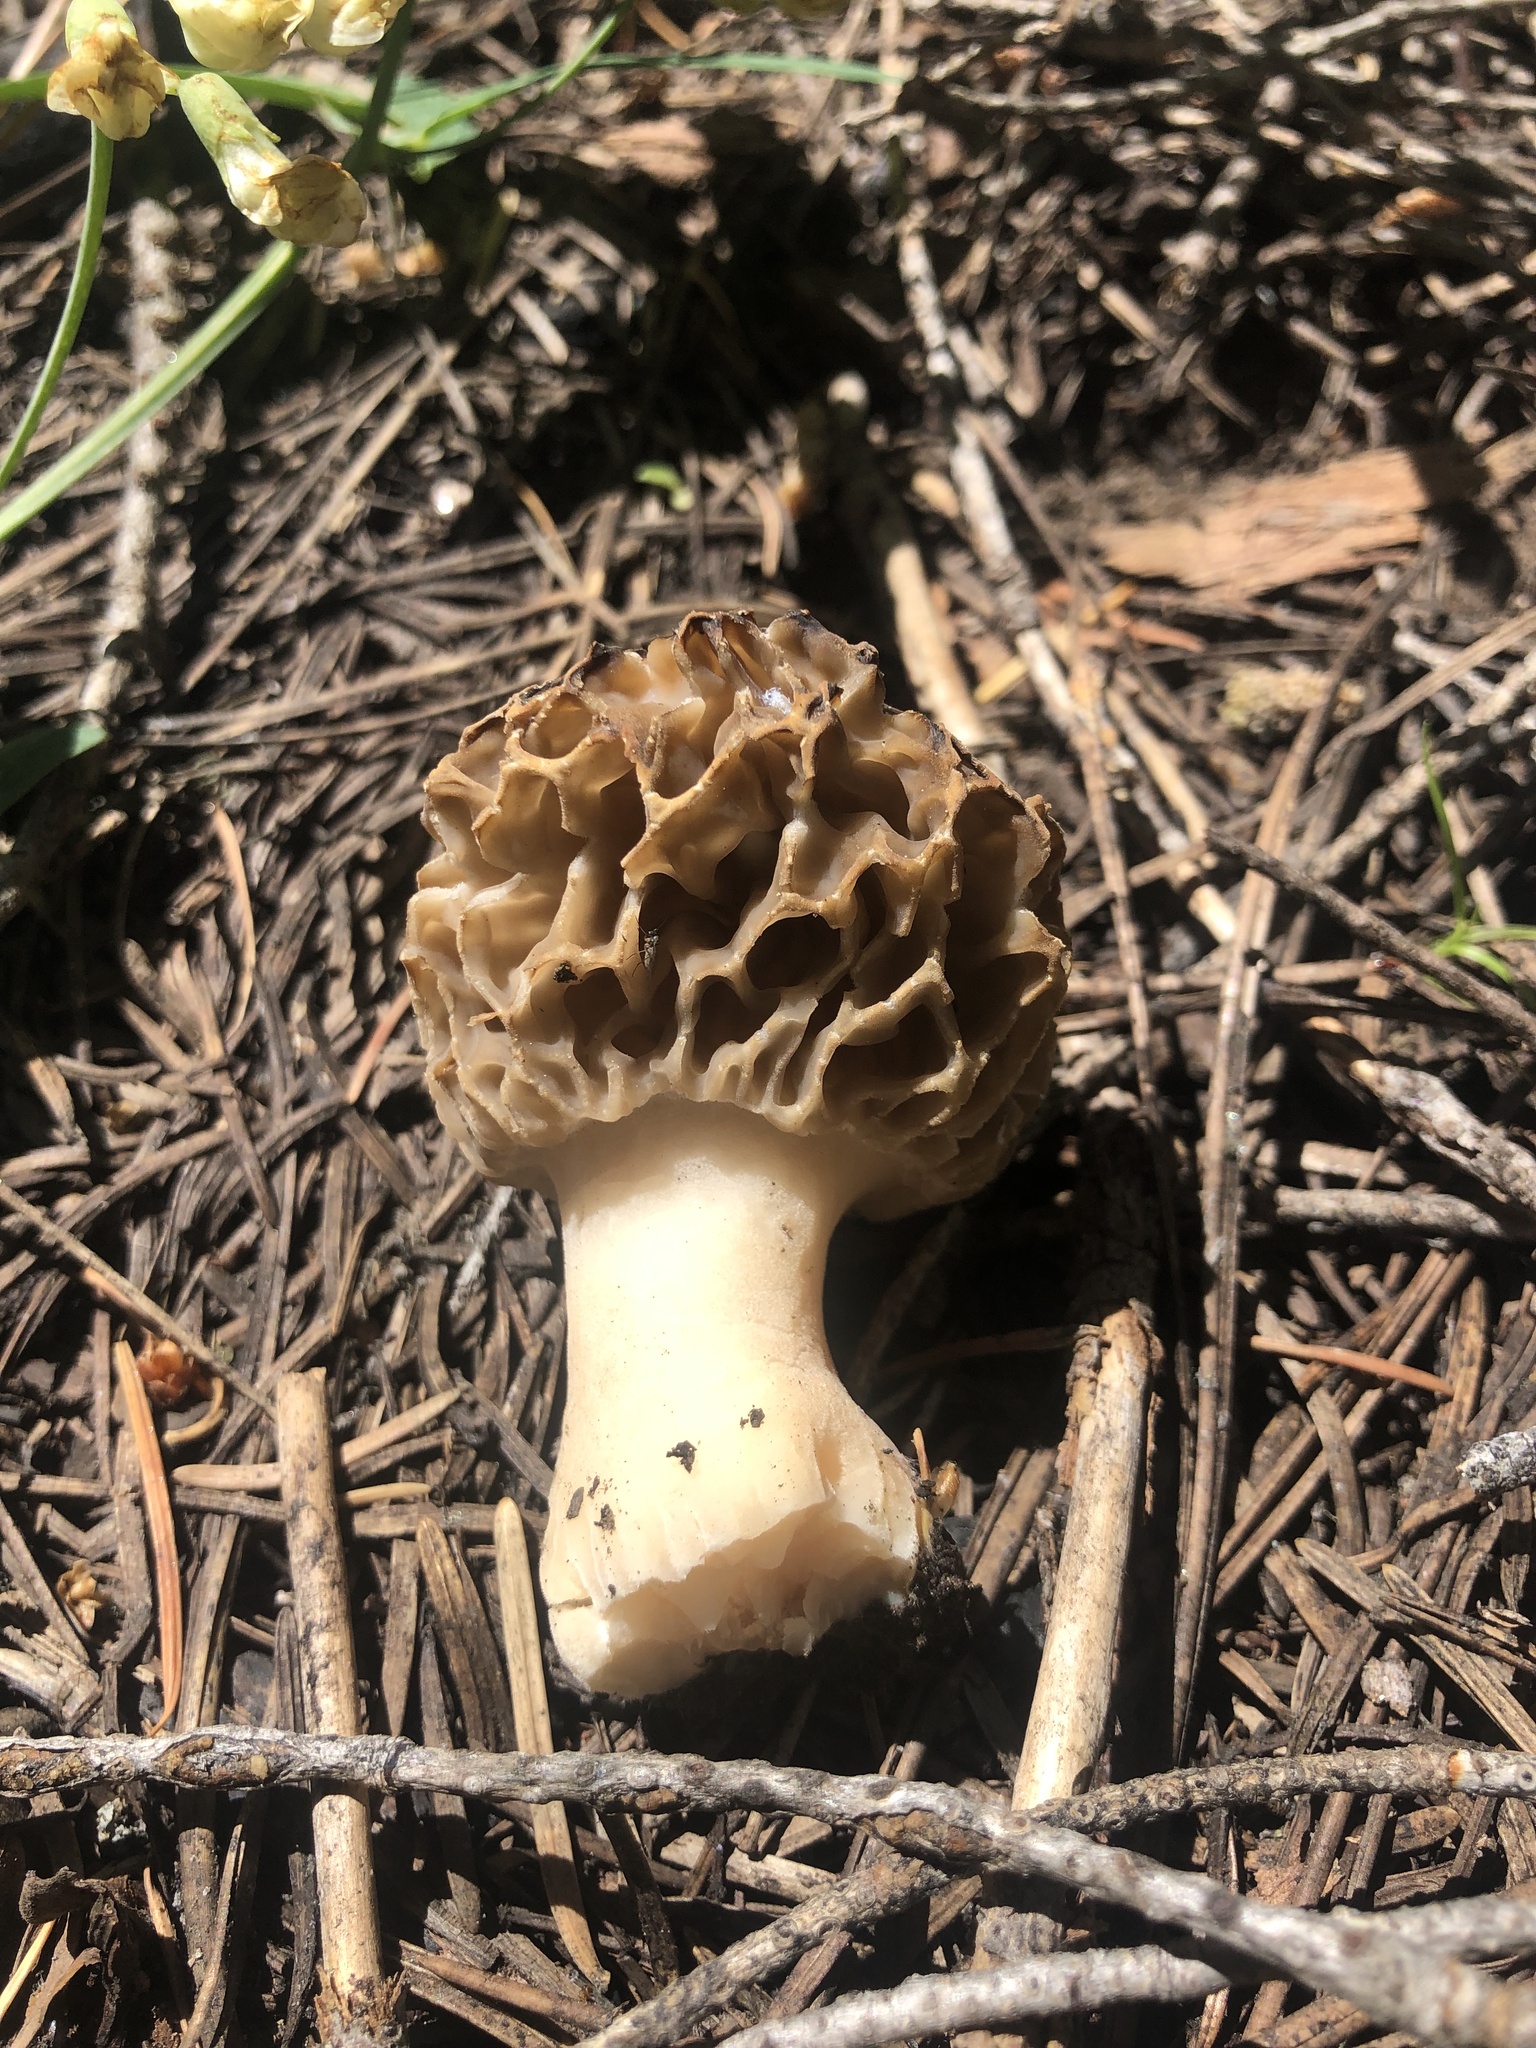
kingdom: Fungi
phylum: Ascomycota
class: Pezizomycetes
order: Pezizales
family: Morchellaceae
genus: Morchella
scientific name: Morchella prava
